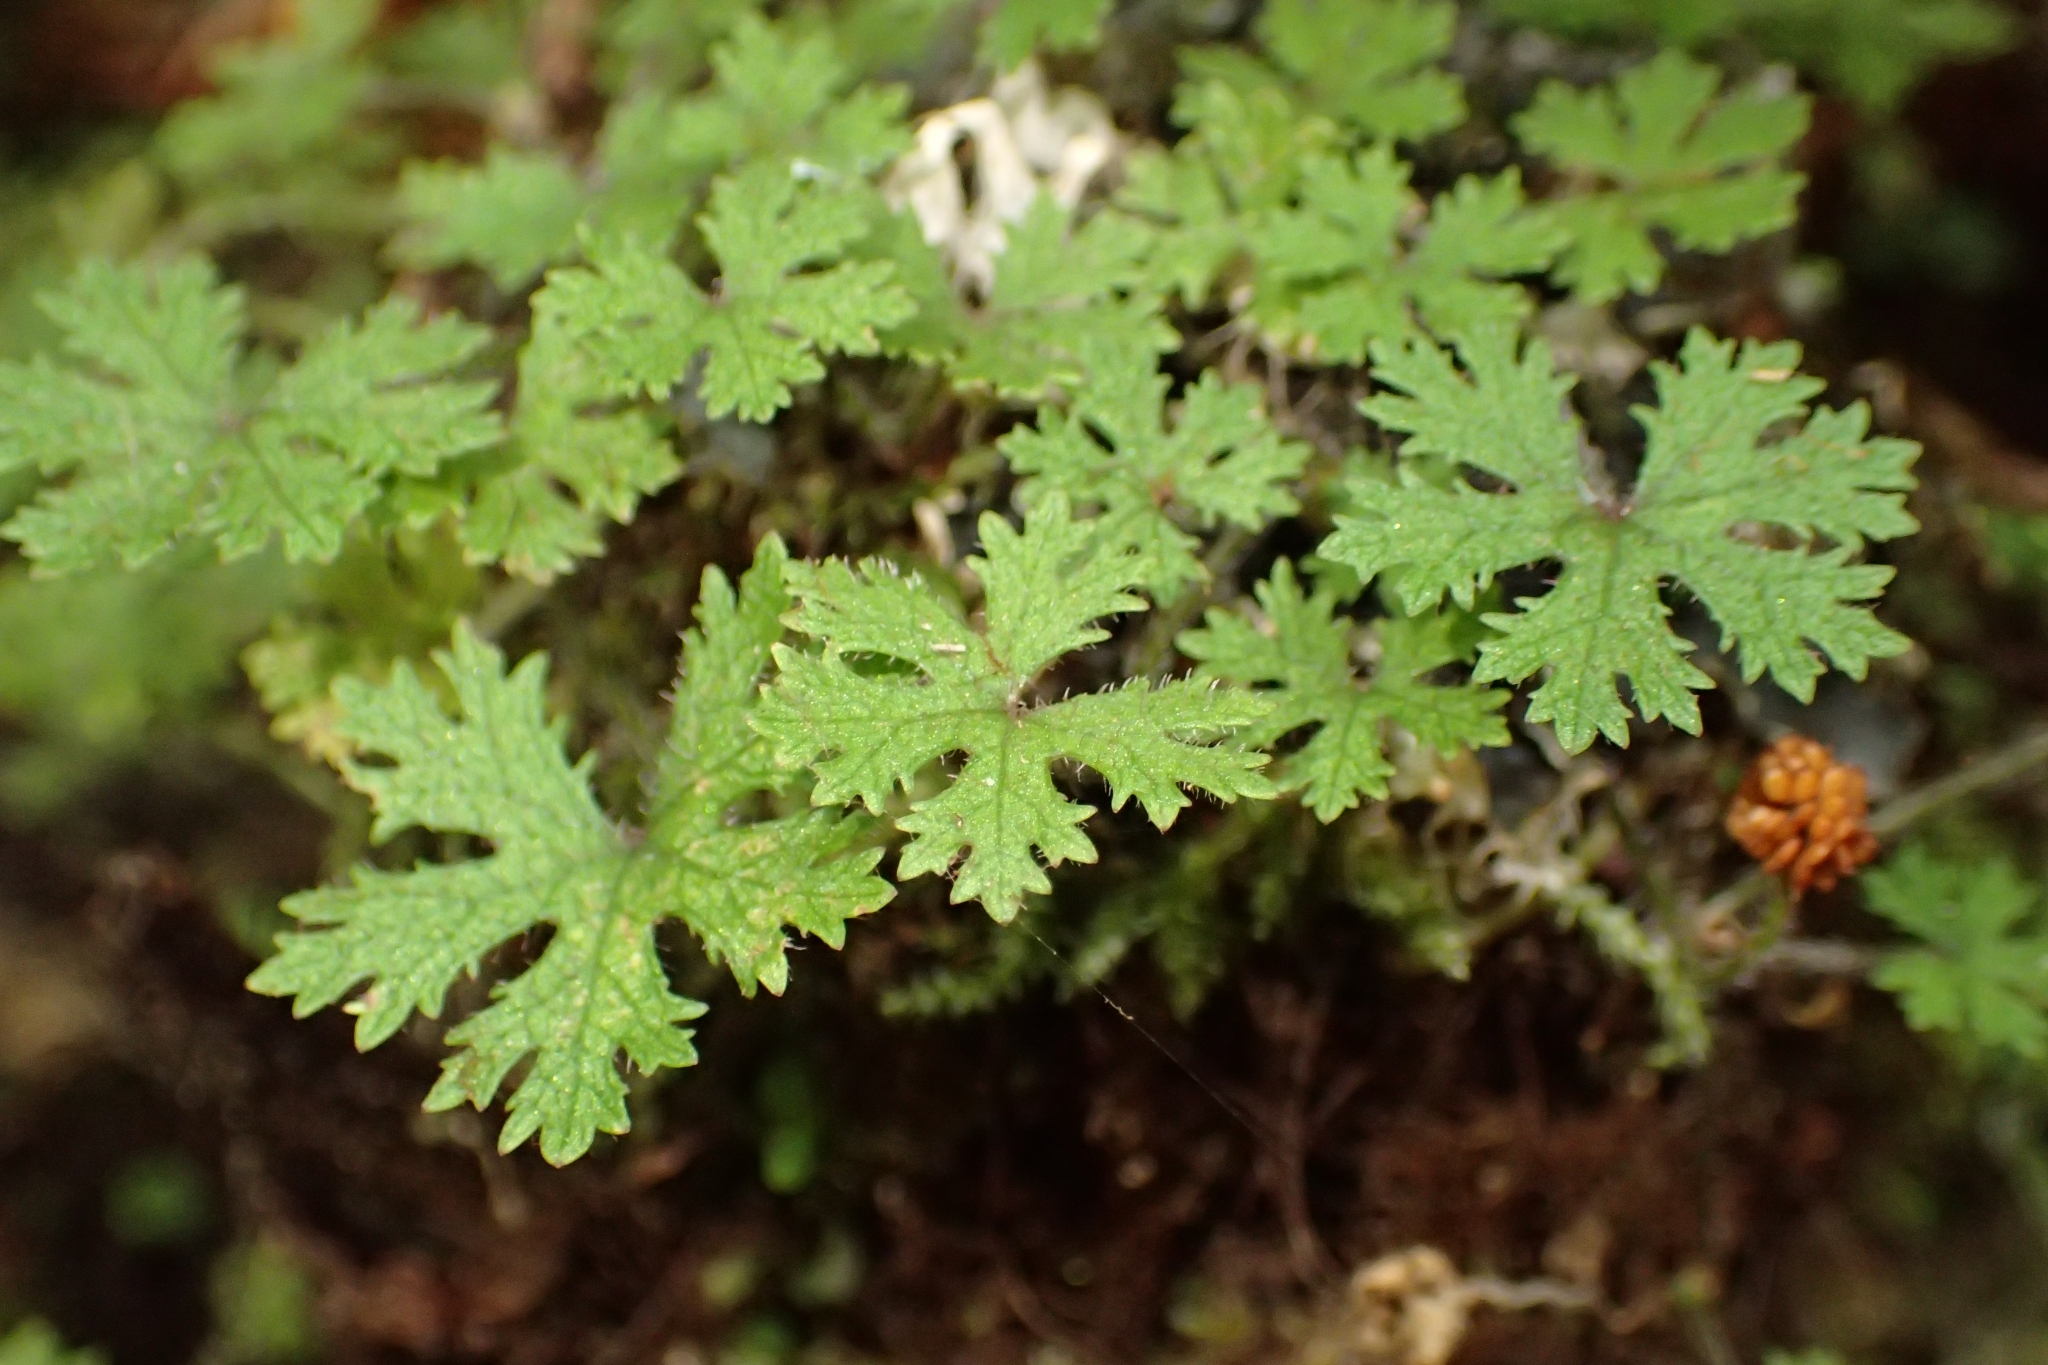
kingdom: Plantae
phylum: Tracheophyta
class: Magnoliopsida
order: Apiales
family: Araliaceae
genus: Hydrocotyle
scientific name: Hydrocotyle dissecta
